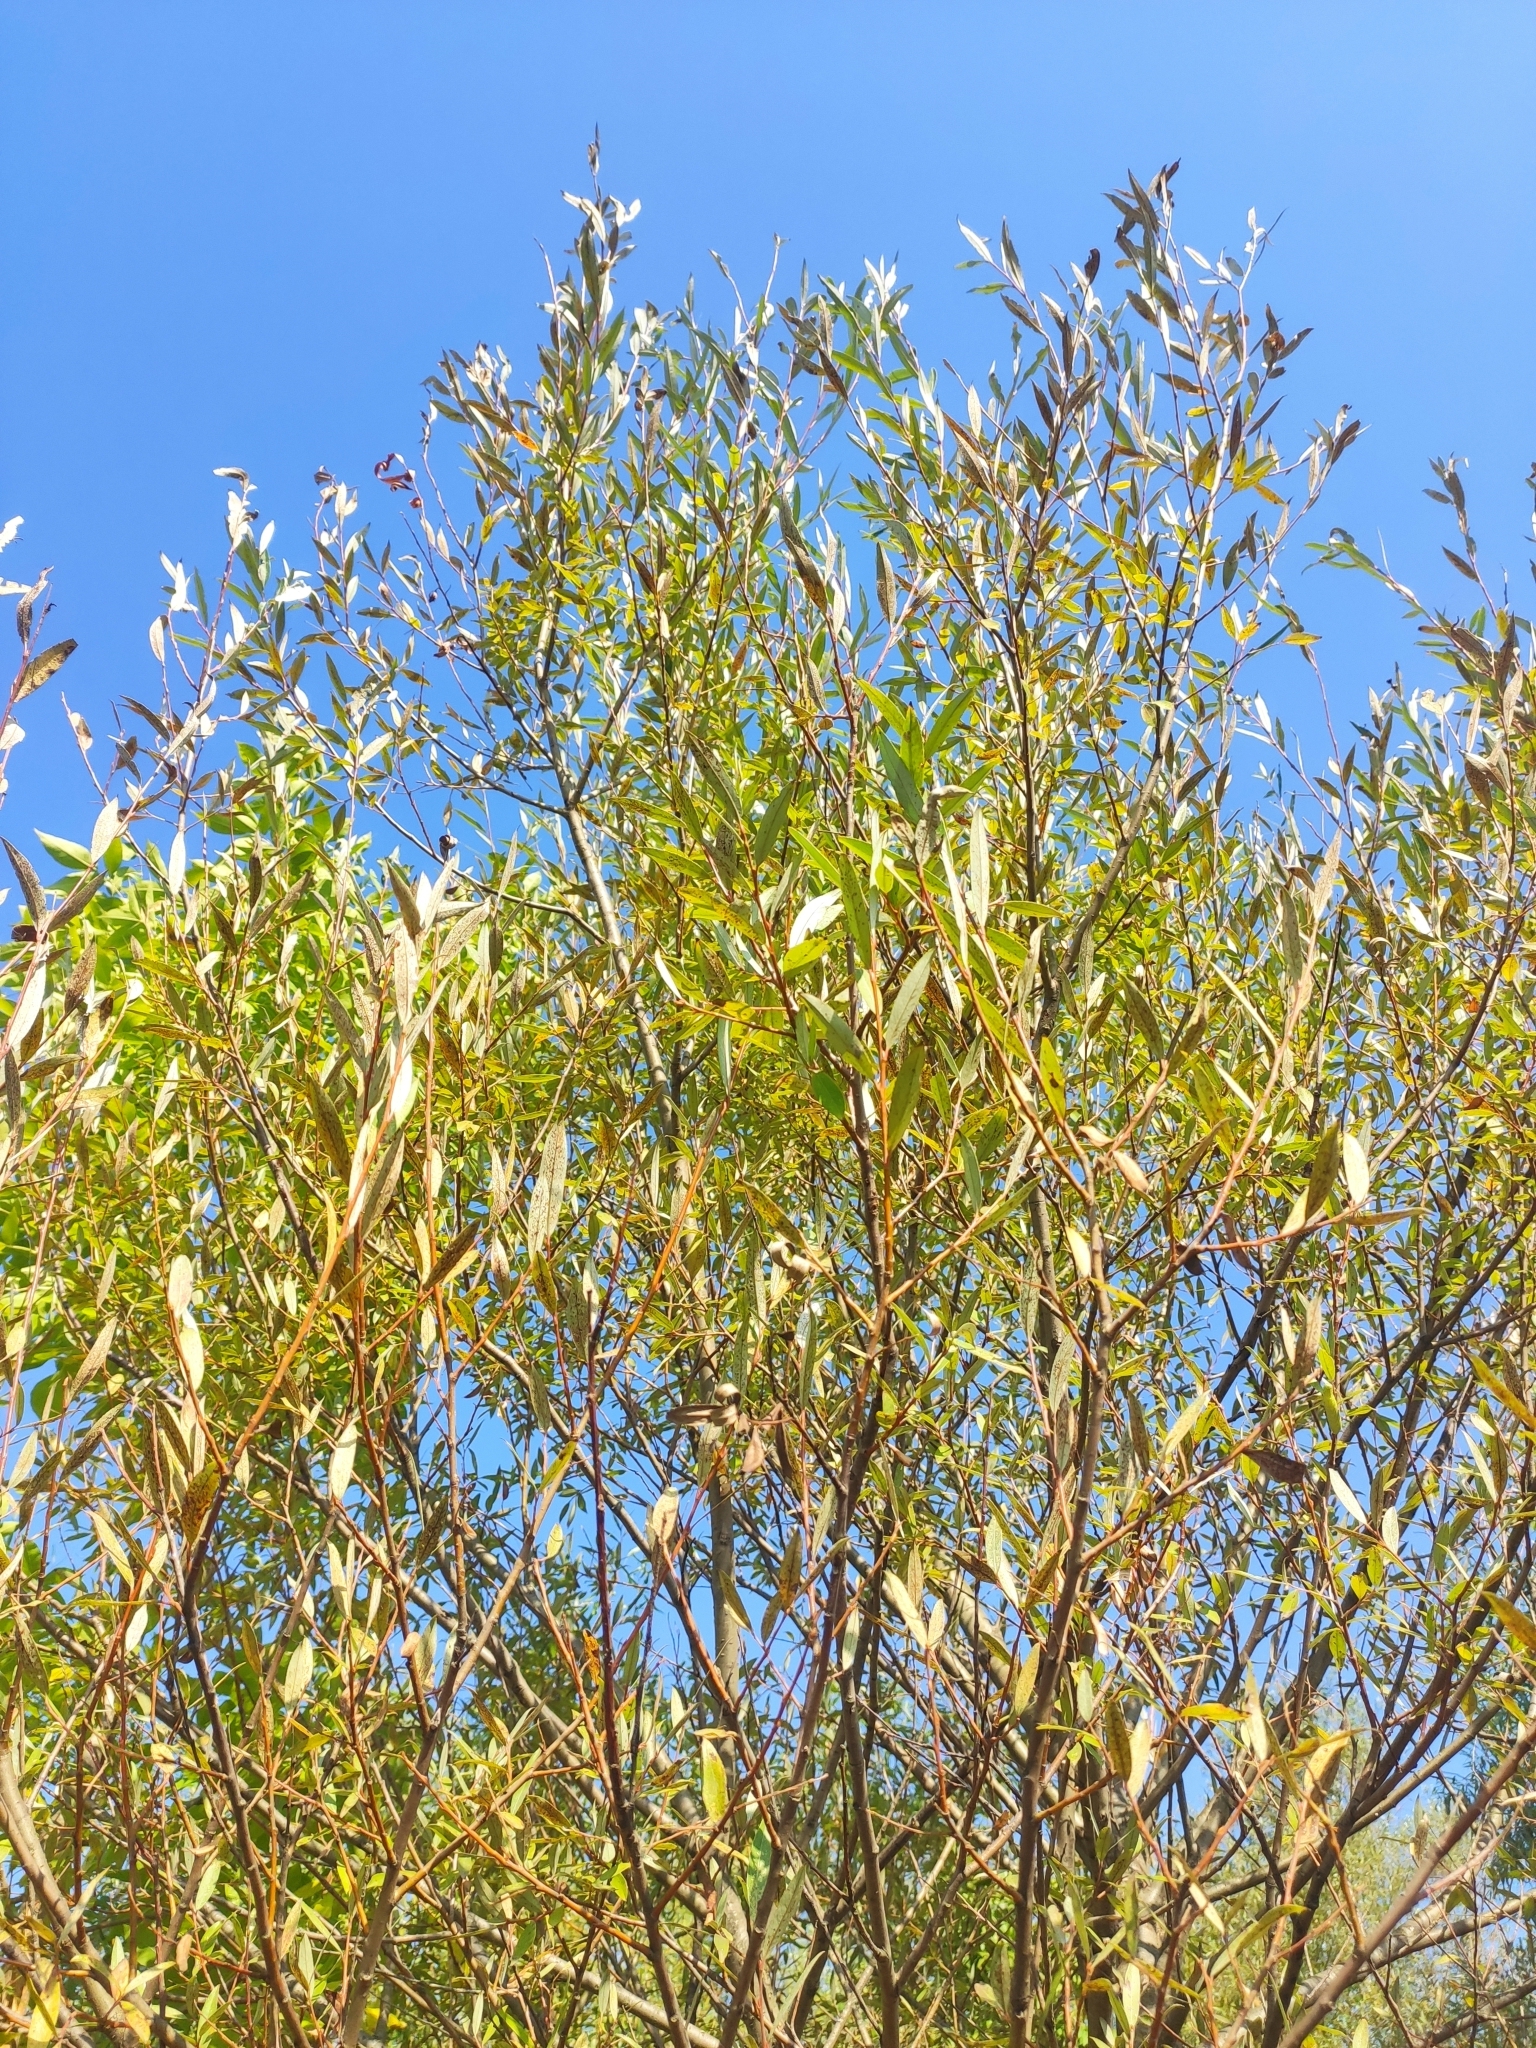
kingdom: Plantae
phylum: Tracheophyta
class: Magnoliopsida
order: Malpighiales
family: Salicaceae
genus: Salix
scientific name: Salix alba
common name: White willow
